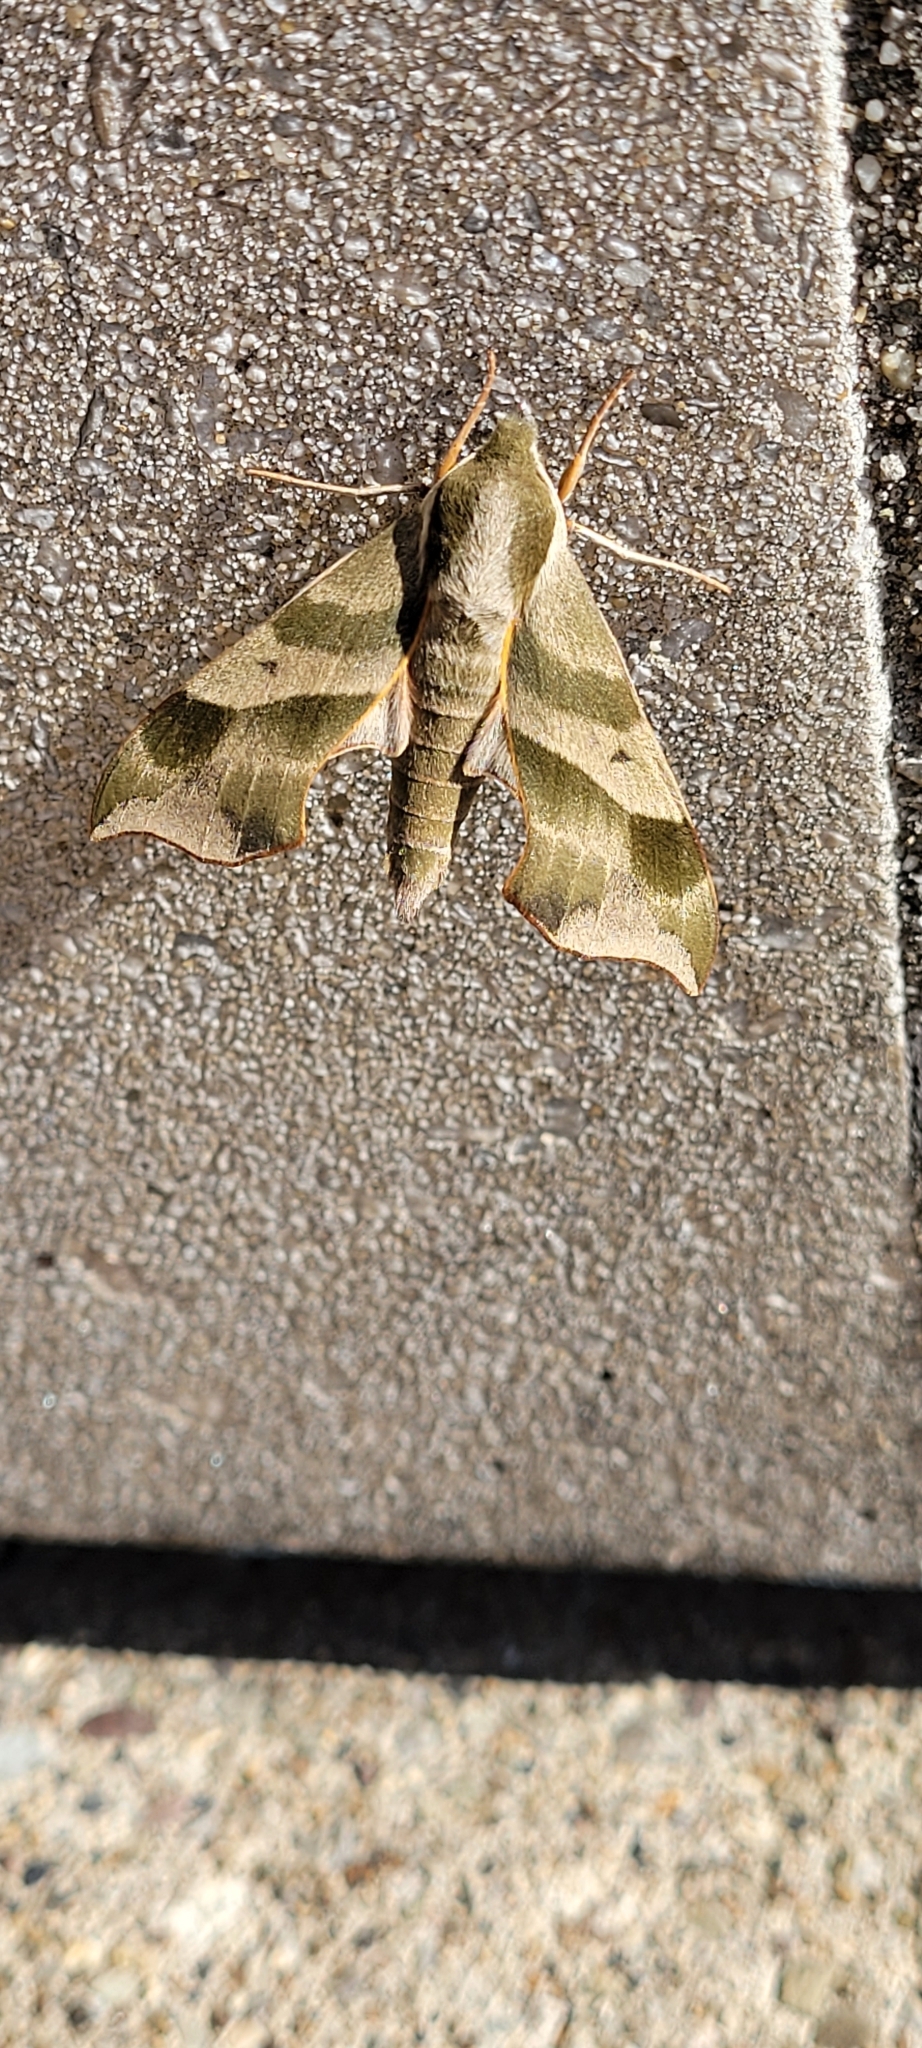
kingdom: Animalia
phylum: Arthropoda
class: Insecta
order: Lepidoptera
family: Sphingidae
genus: Darapsa
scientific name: Darapsa myron
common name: Hog sphinx
